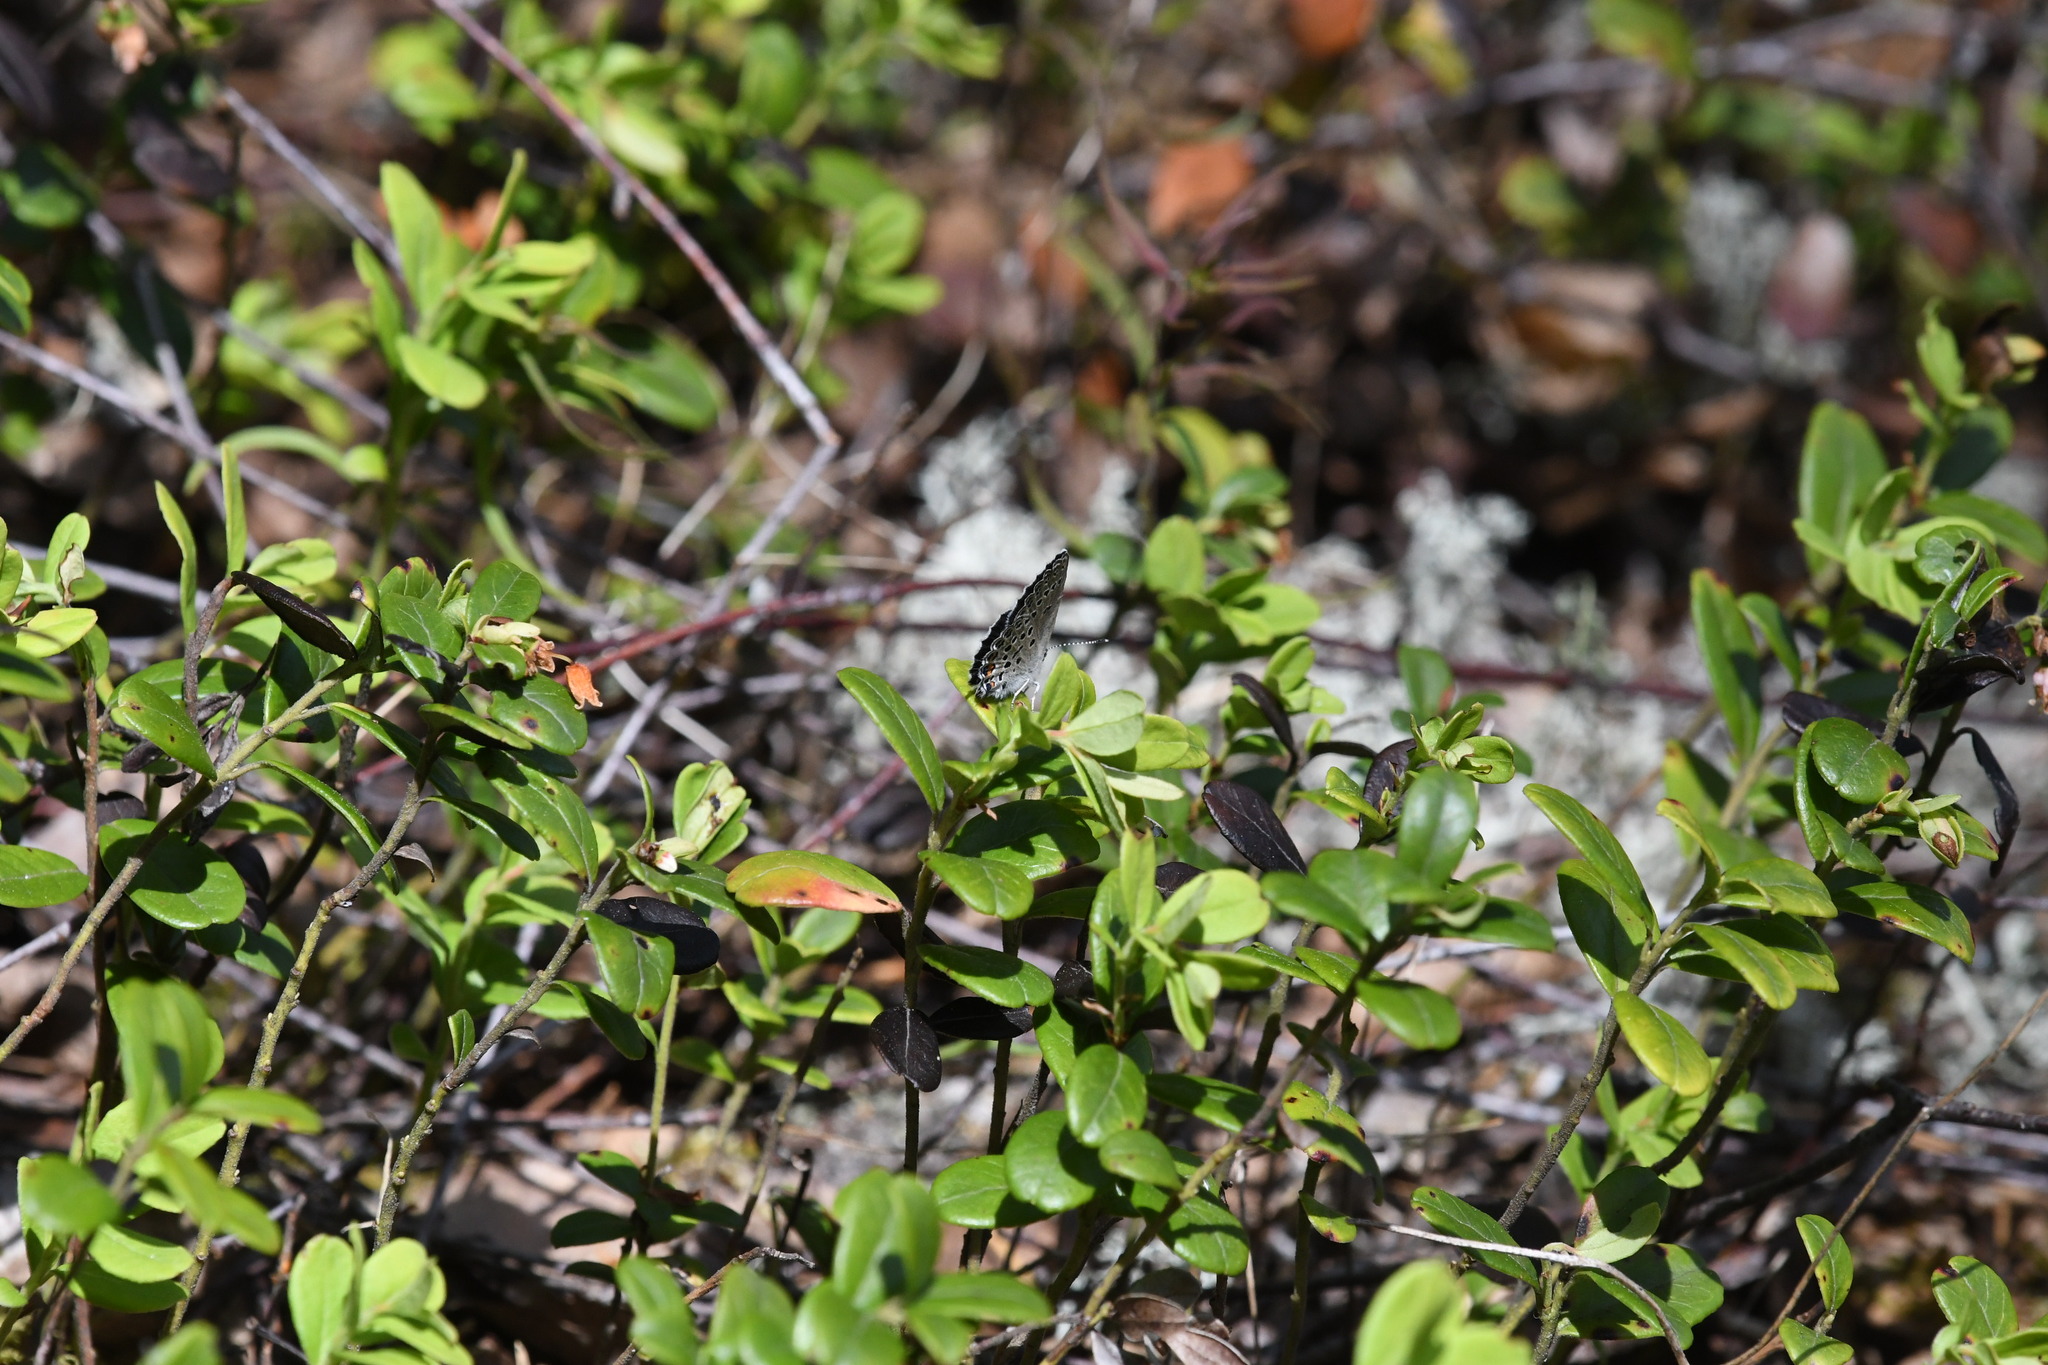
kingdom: Animalia
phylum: Arthropoda
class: Insecta
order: Lepidoptera
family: Lycaenidae
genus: Vacciniina
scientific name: Vacciniina optilete
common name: Cranberry blue
